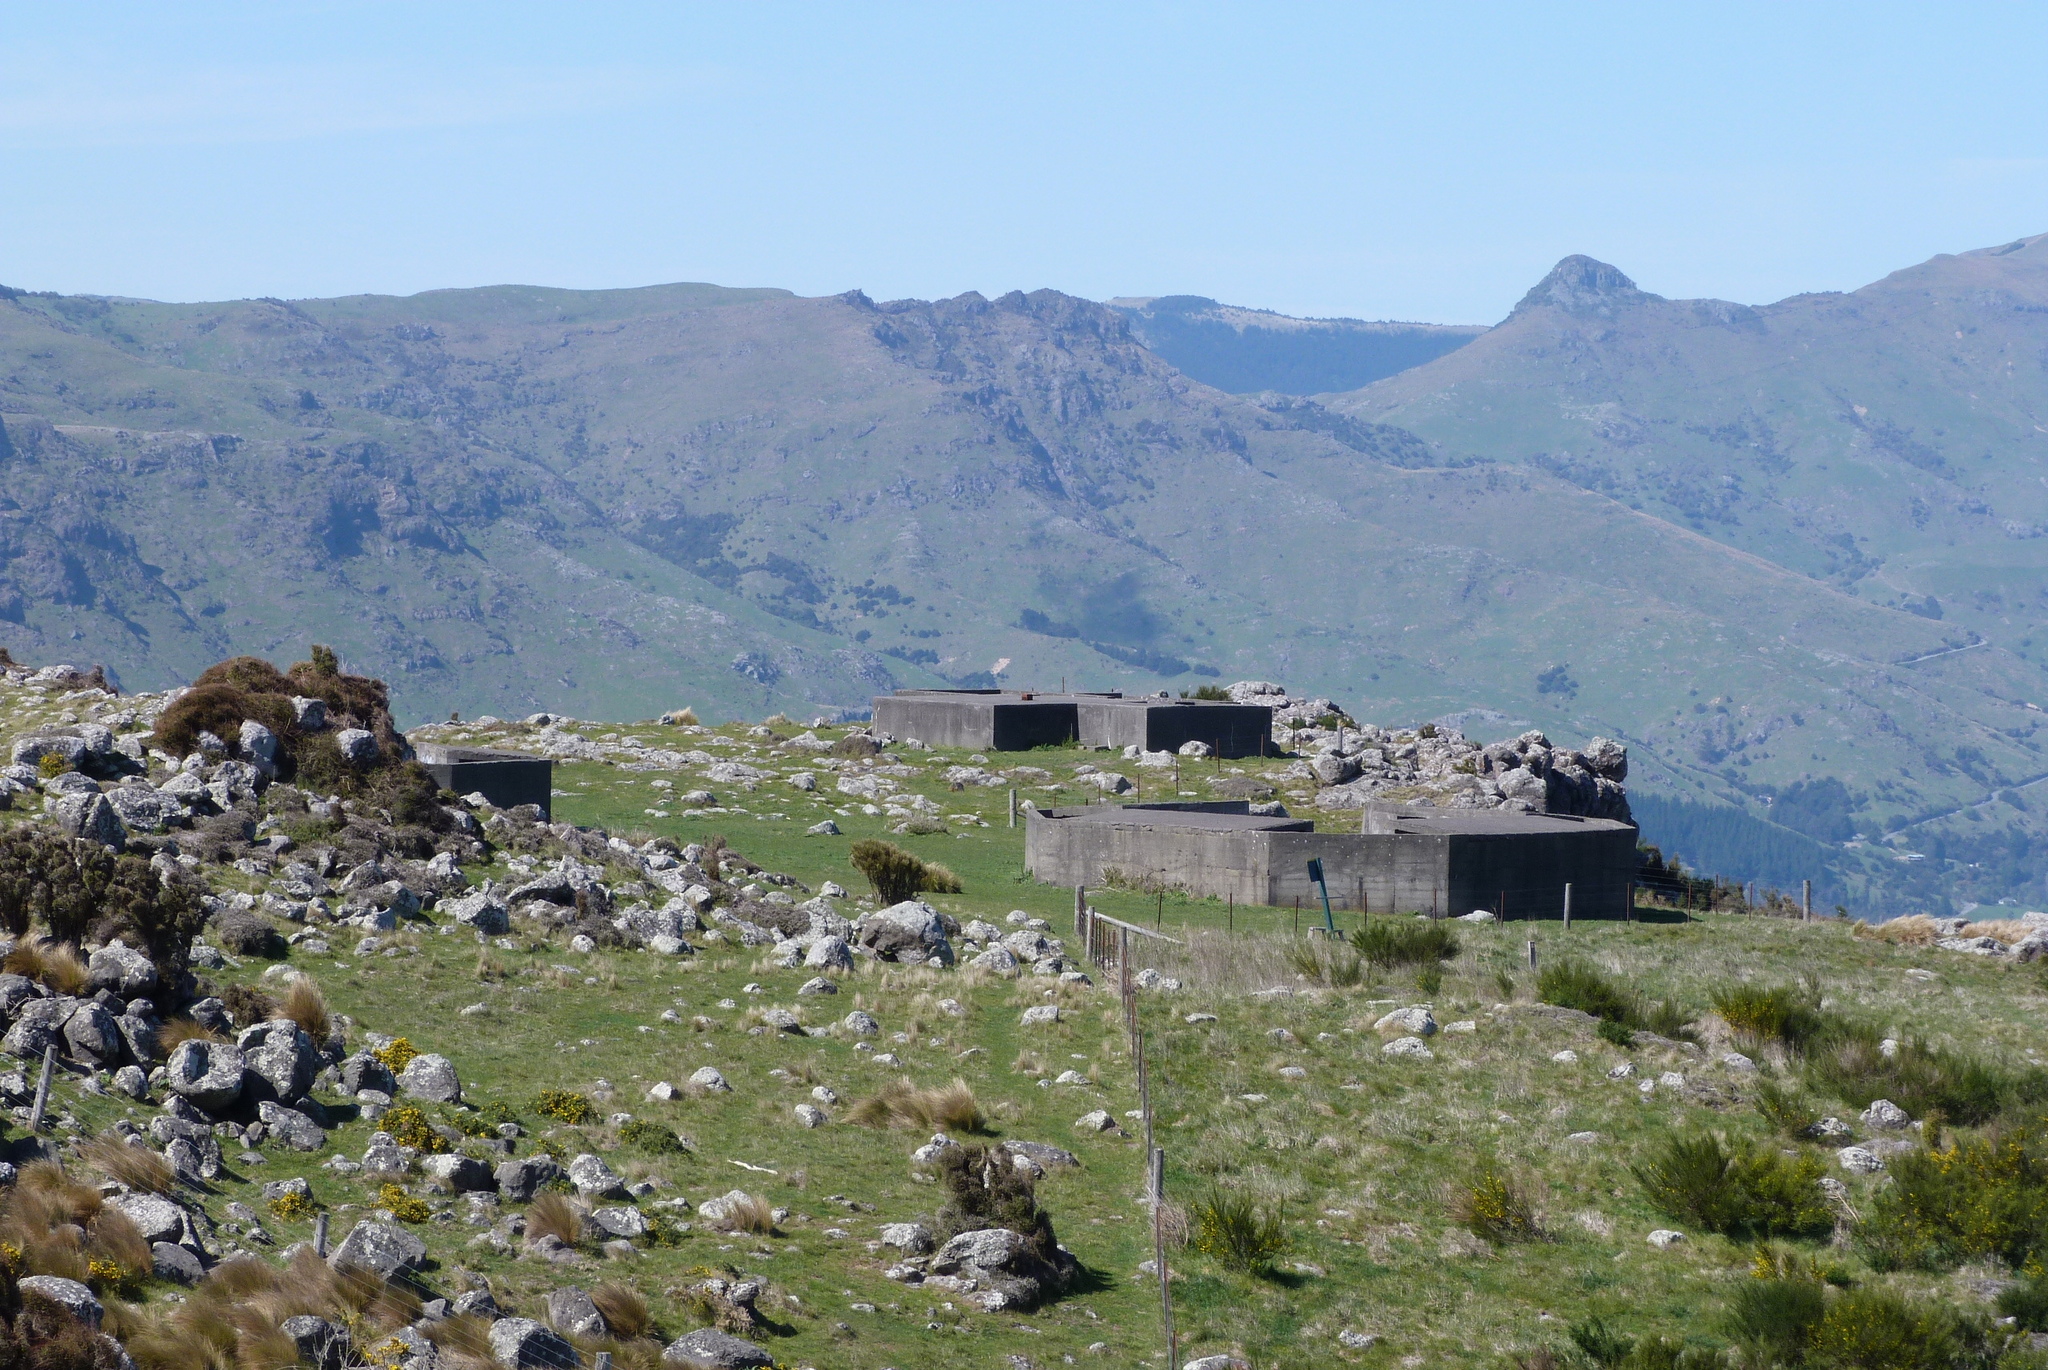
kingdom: Plantae
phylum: Tracheophyta
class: Magnoliopsida
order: Fabales
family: Fabaceae
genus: Cytisus
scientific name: Cytisus scoparius
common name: Scotch broom
